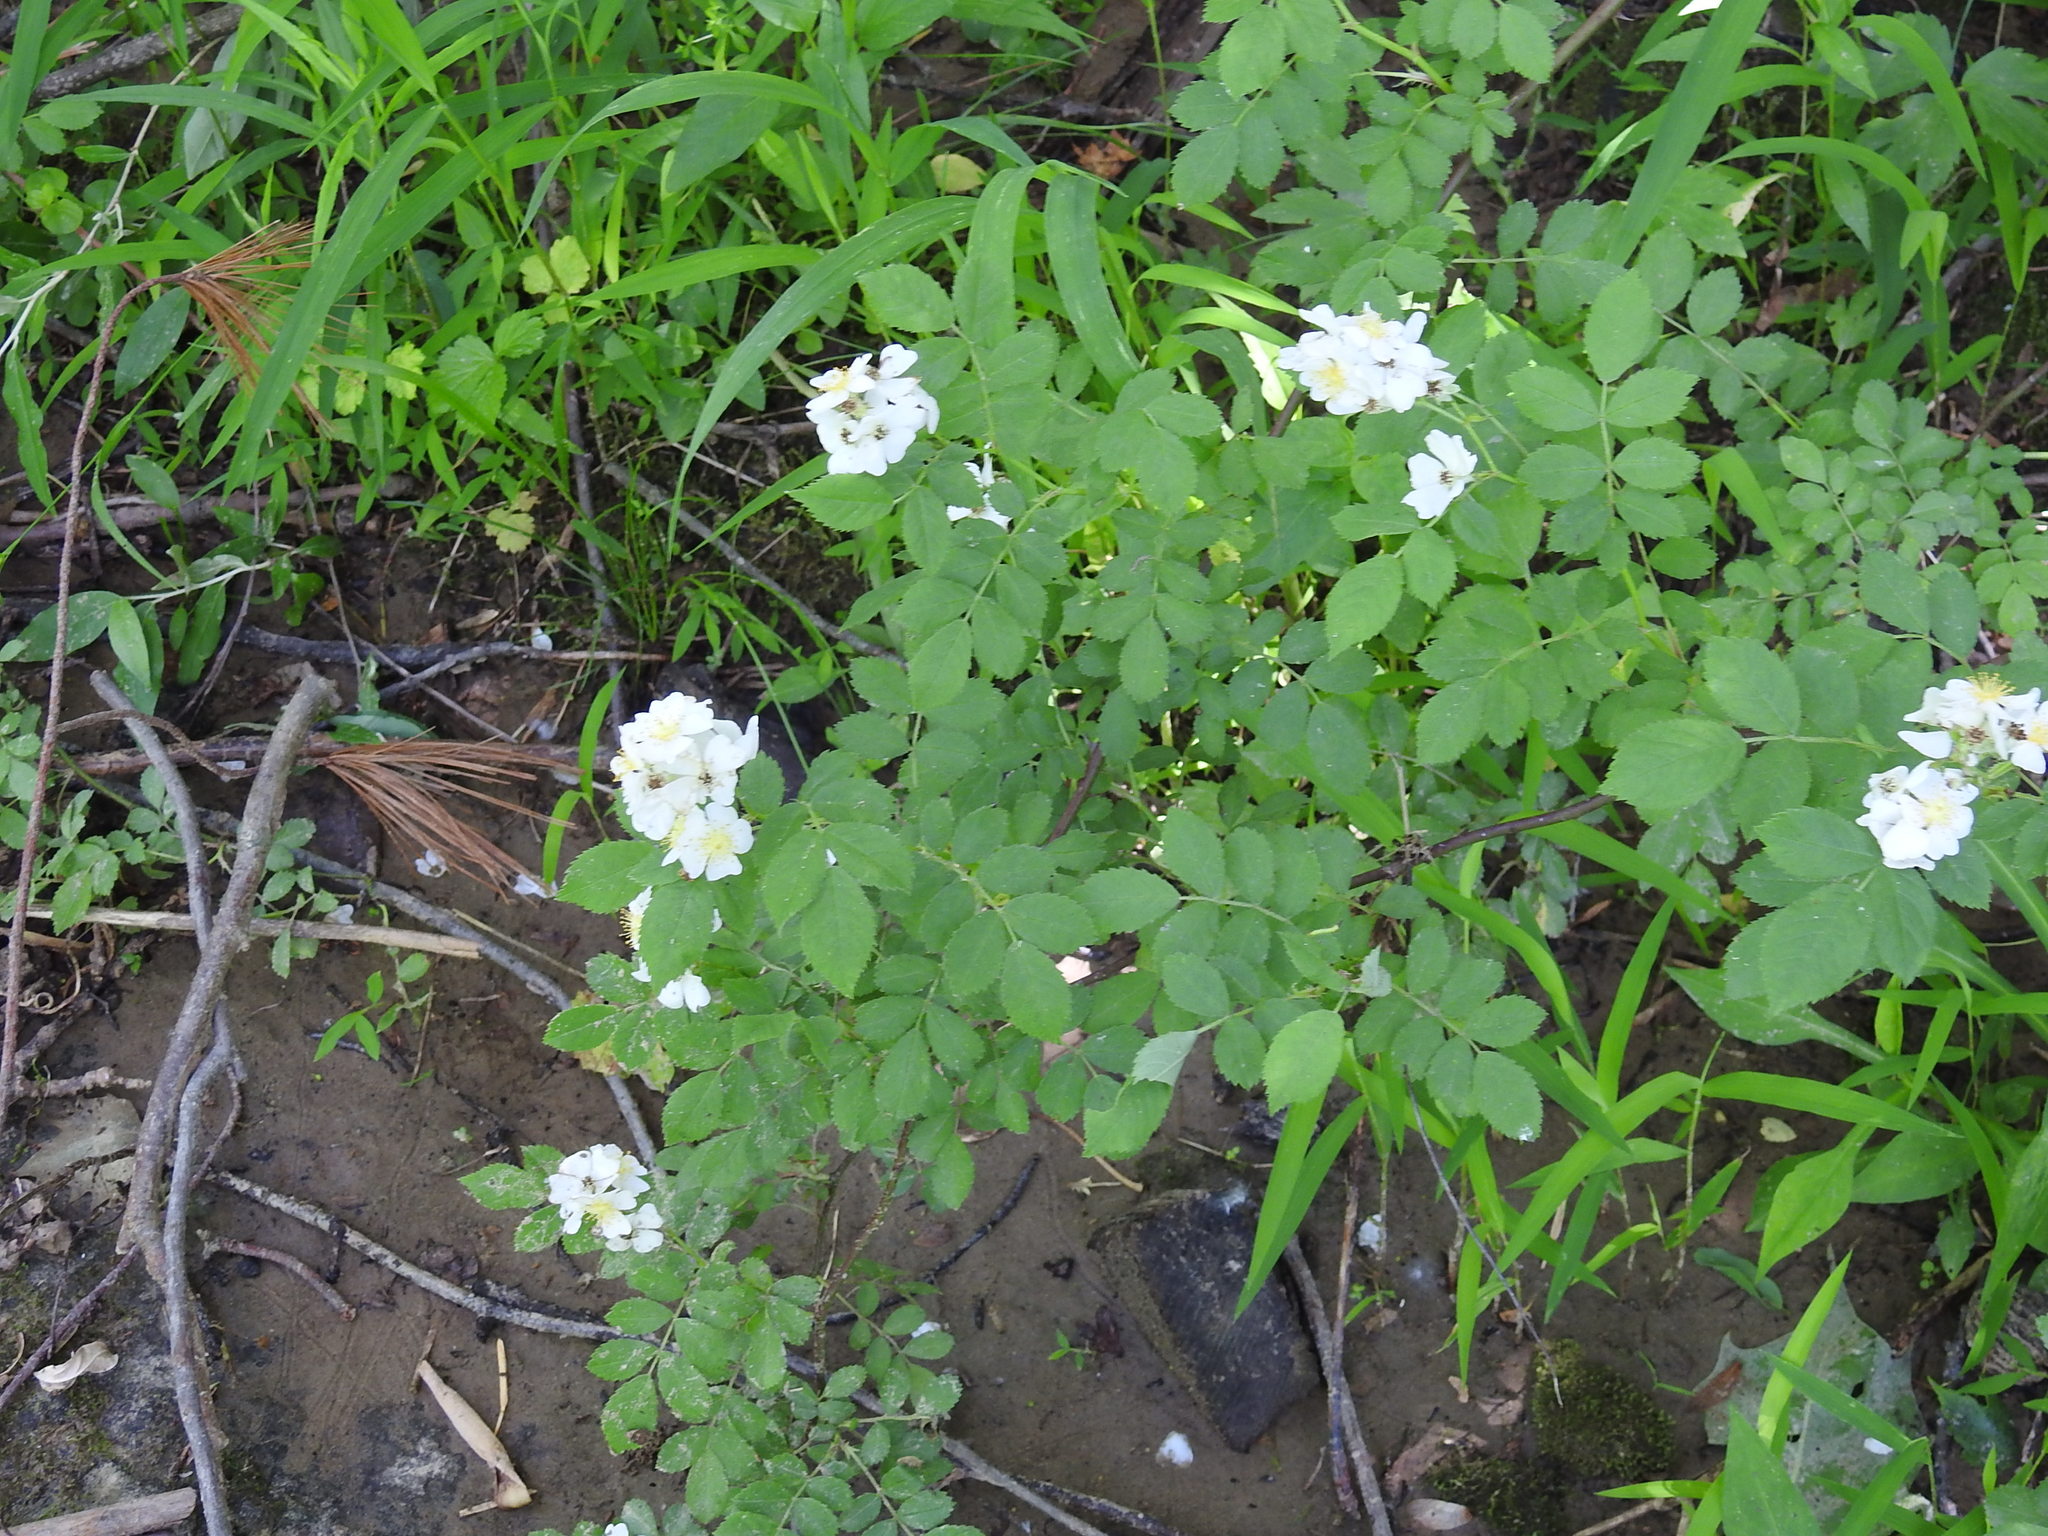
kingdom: Plantae
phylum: Tracheophyta
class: Magnoliopsida
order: Rosales
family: Rosaceae
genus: Rosa
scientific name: Rosa multiflora
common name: Multiflora rose
